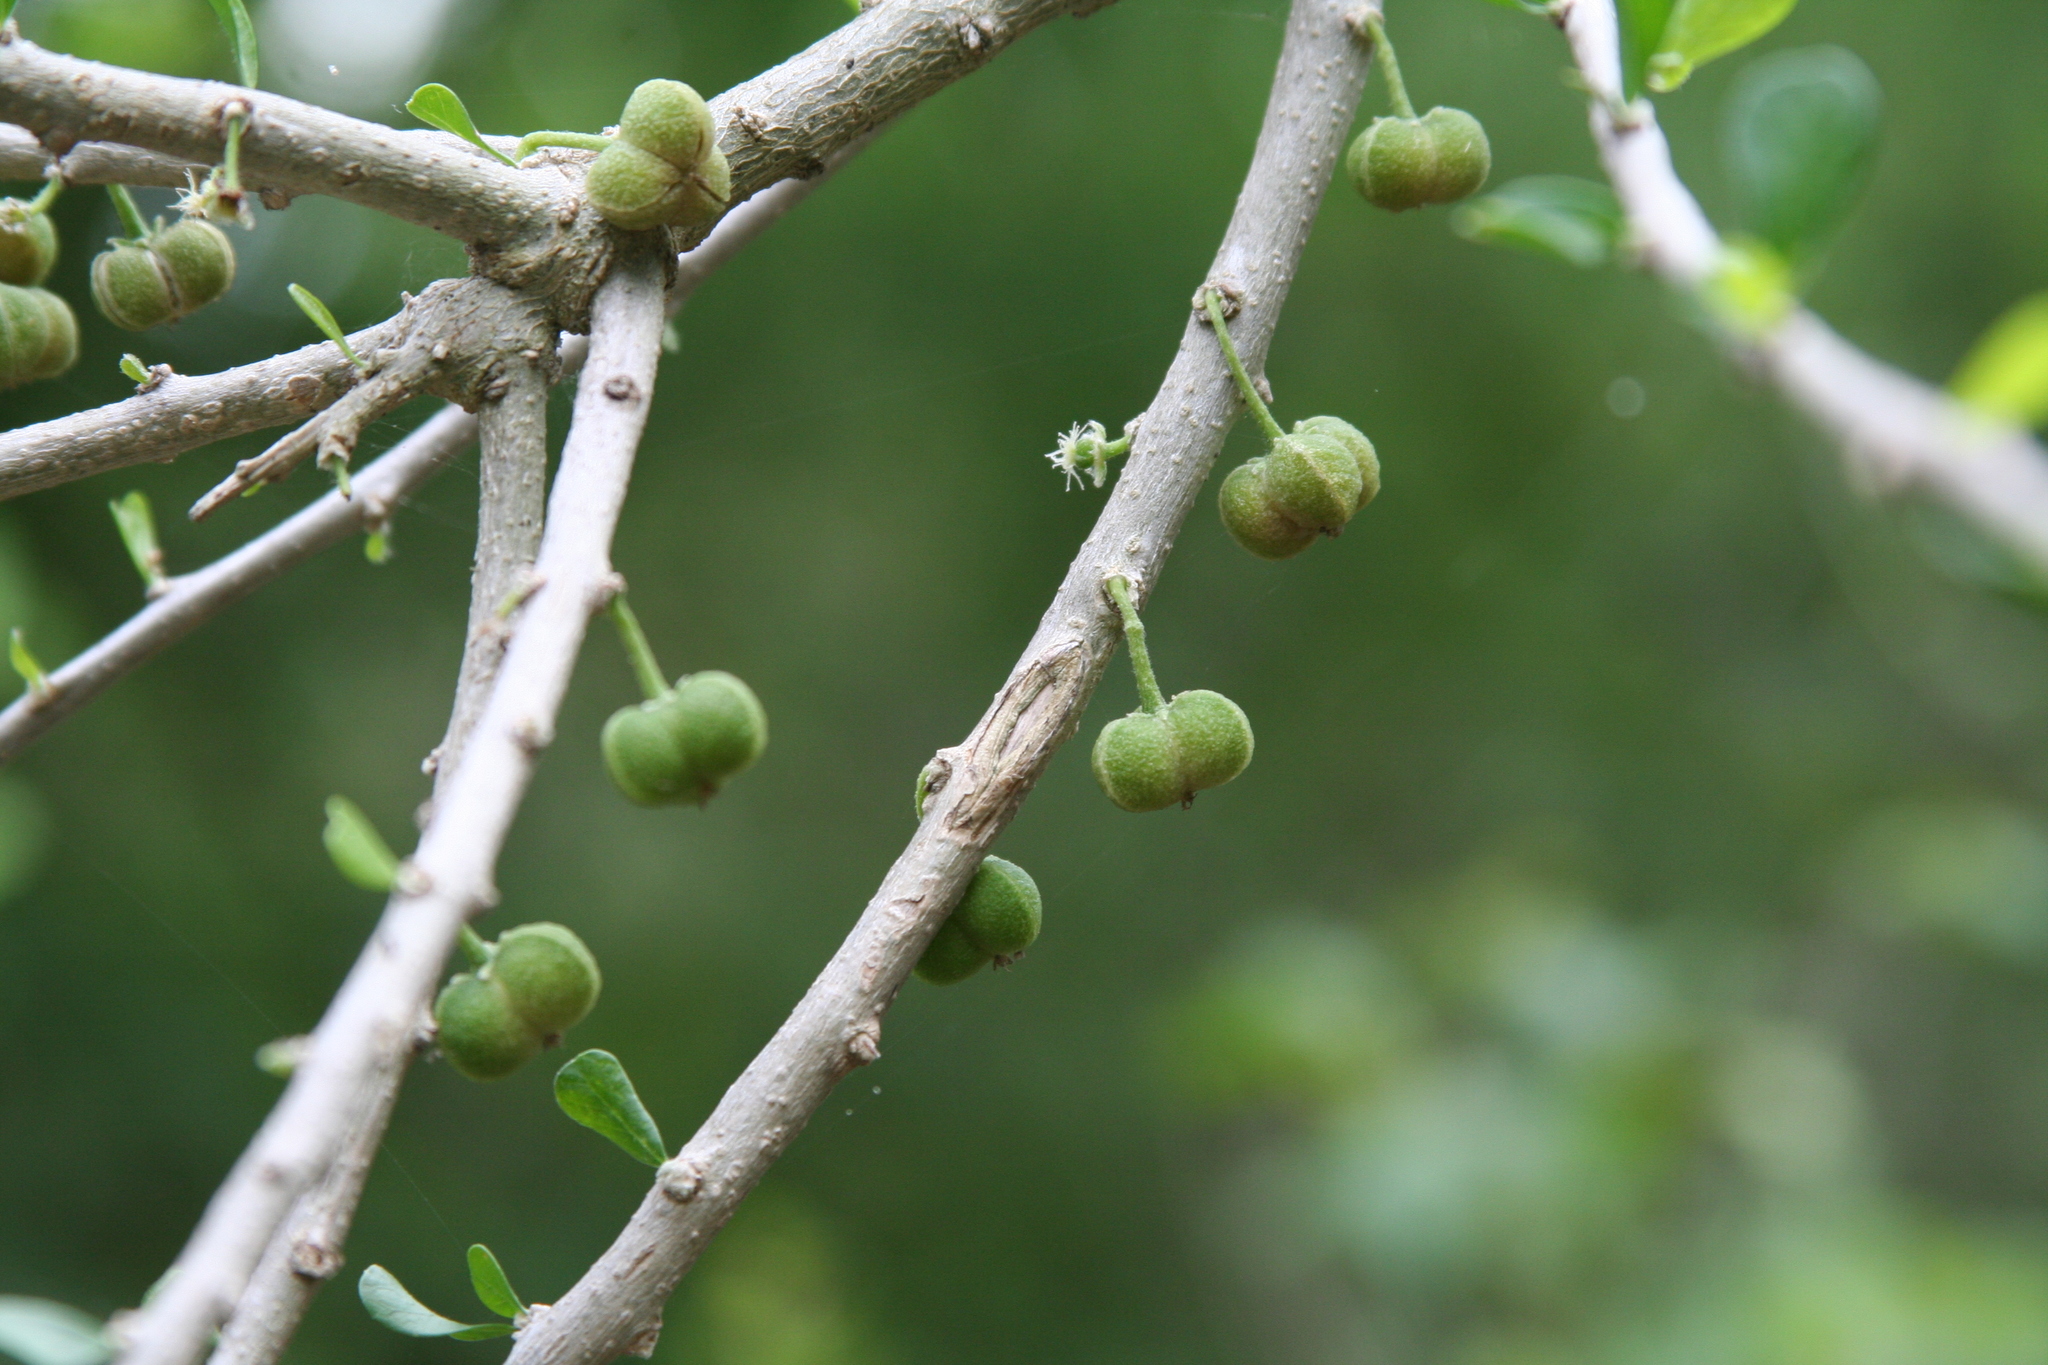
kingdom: Plantae
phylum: Tracheophyta
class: Magnoliopsida
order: Malpighiales
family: Euphorbiaceae
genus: Adelia
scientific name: Adelia vaseyi
